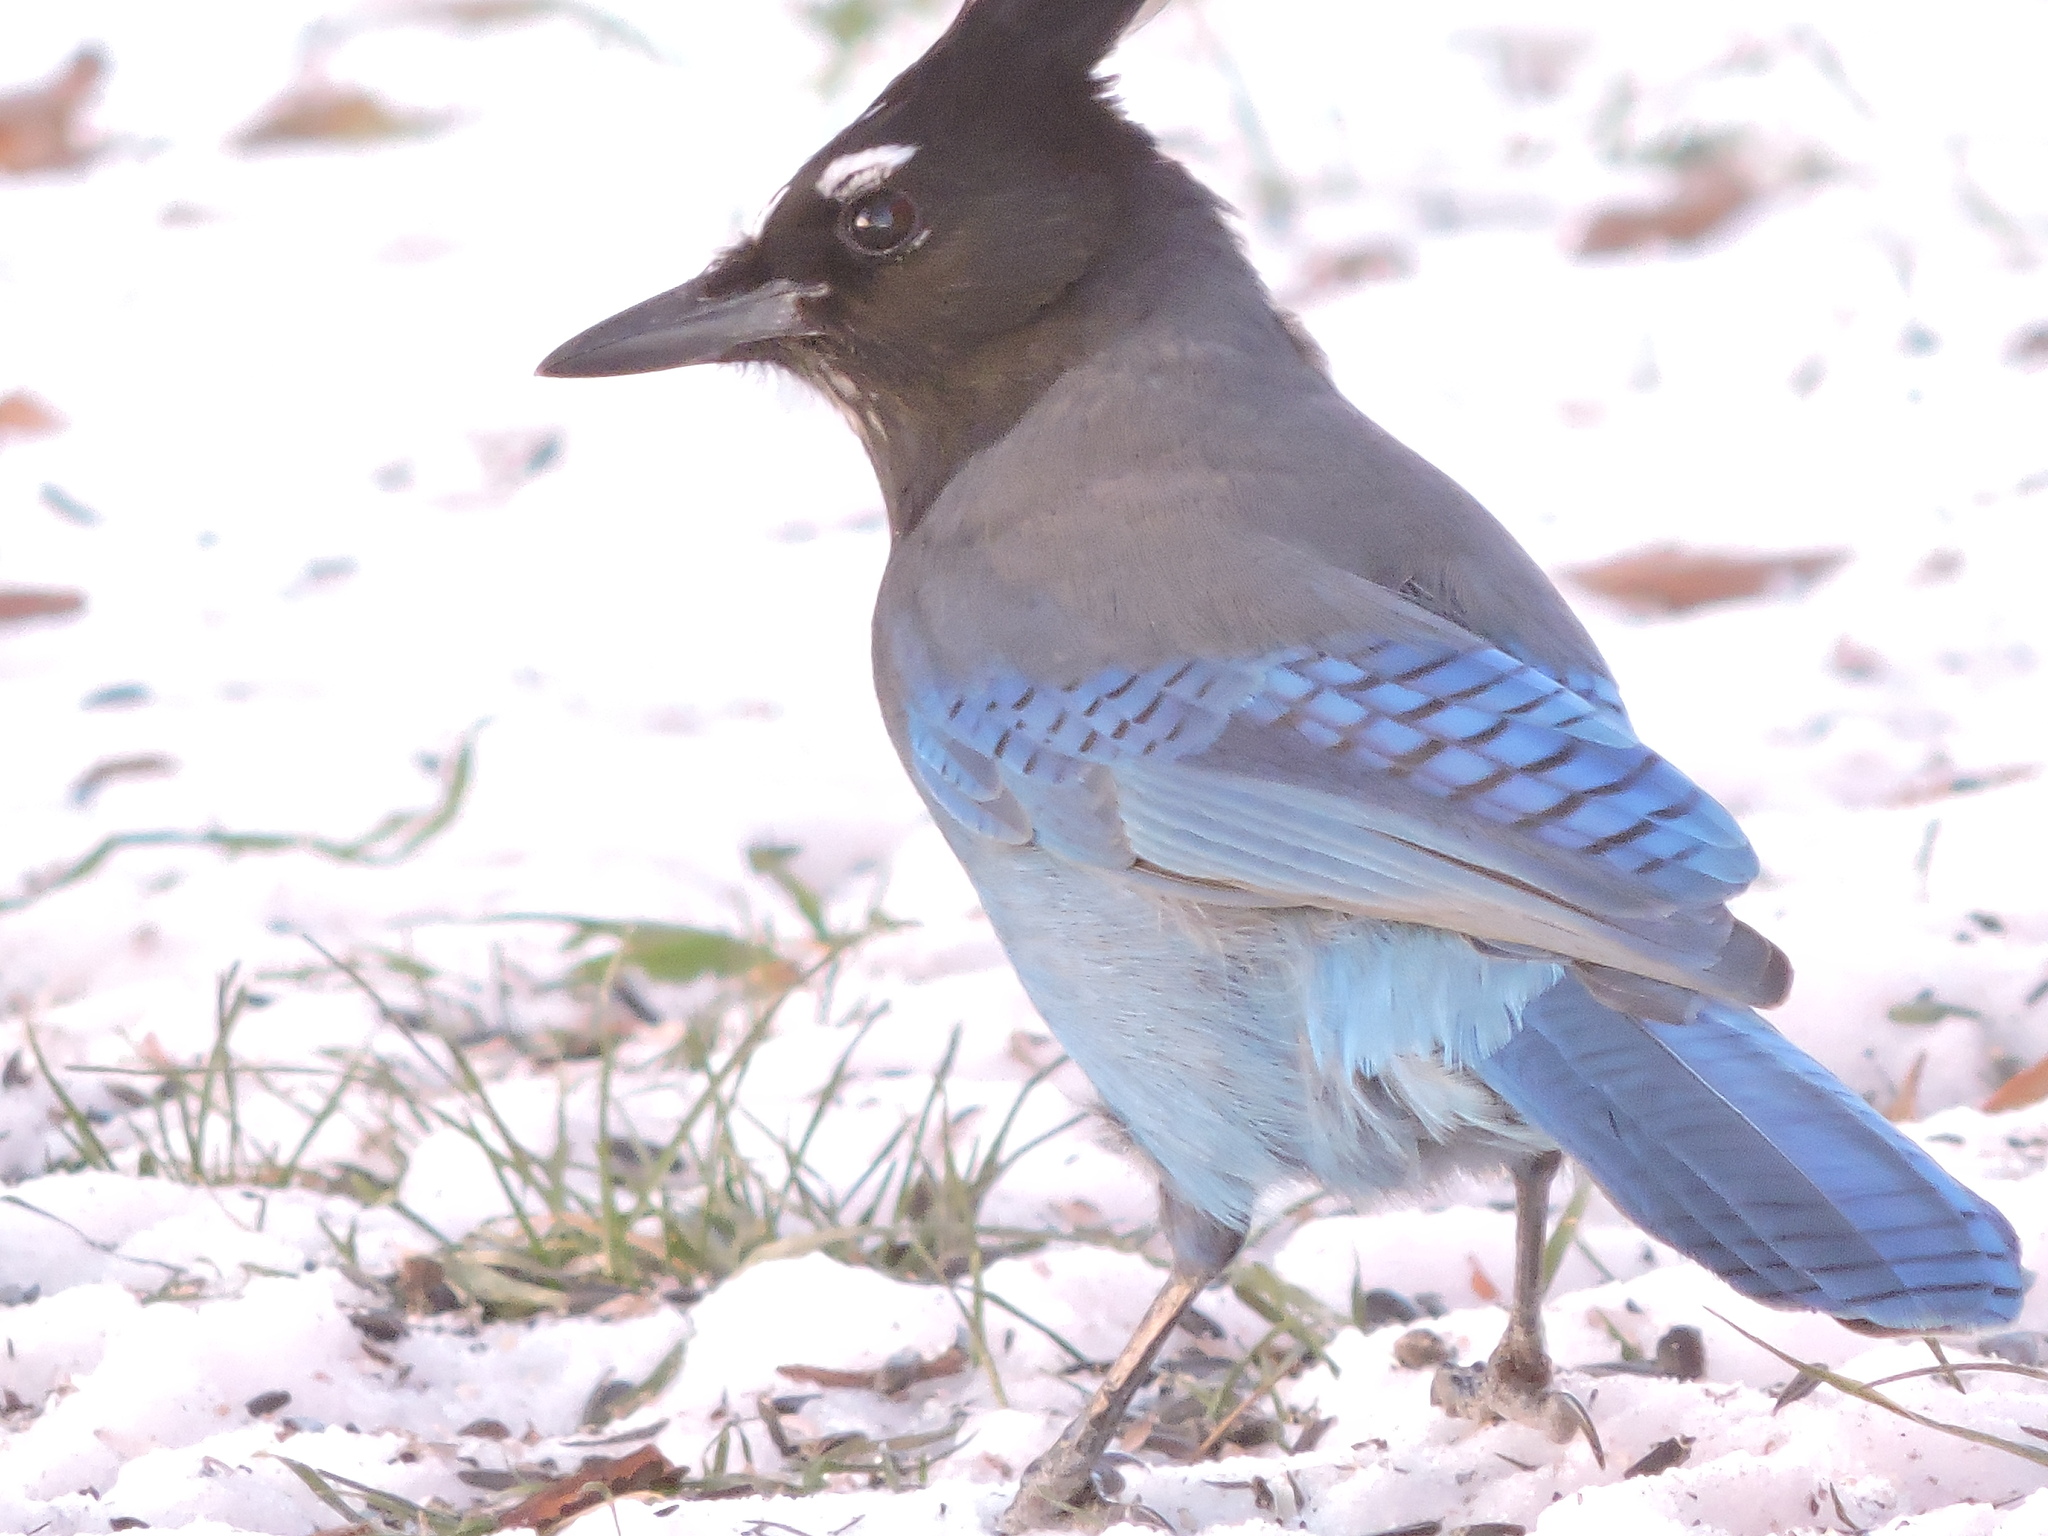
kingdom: Animalia
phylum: Chordata
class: Aves
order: Passeriformes
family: Corvidae
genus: Cyanocitta
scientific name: Cyanocitta stelleri
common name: Steller's jay
